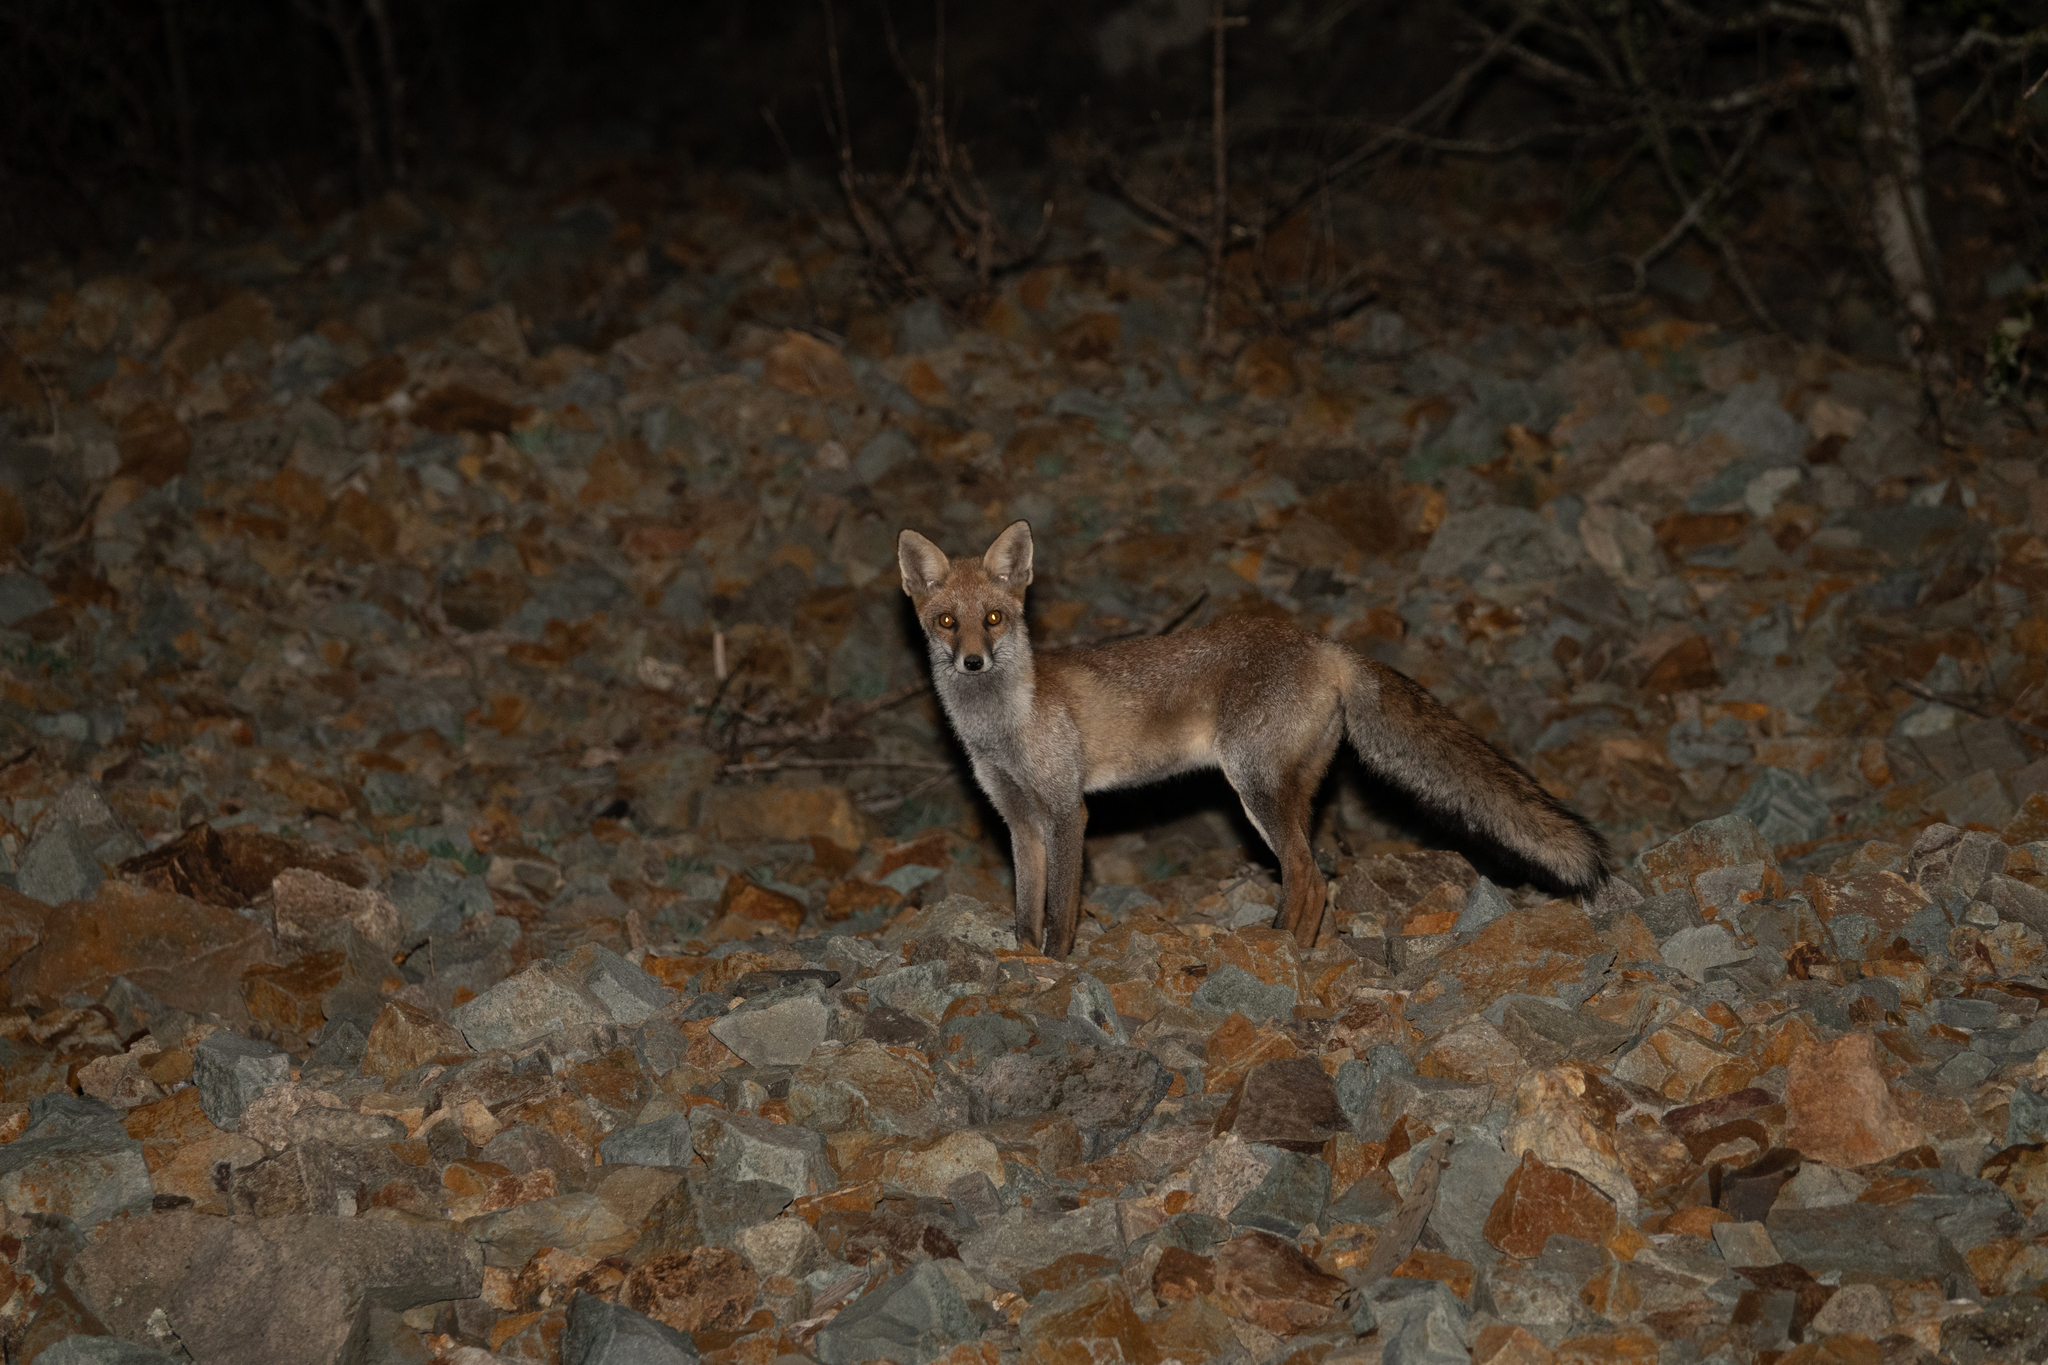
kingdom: Animalia
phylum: Chordata
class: Mammalia
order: Carnivora
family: Canidae
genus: Vulpes
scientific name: Vulpes vulpes
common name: Red fox
